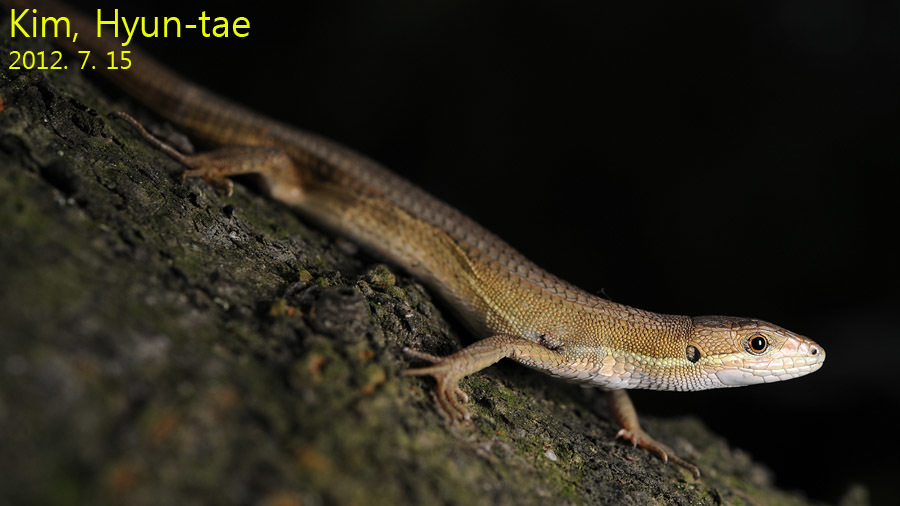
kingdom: Animalia
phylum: Chordata
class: Squamata
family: Lacertidae
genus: Takydromus
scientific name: Takydromus wolteri
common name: Mountain grass lizard
